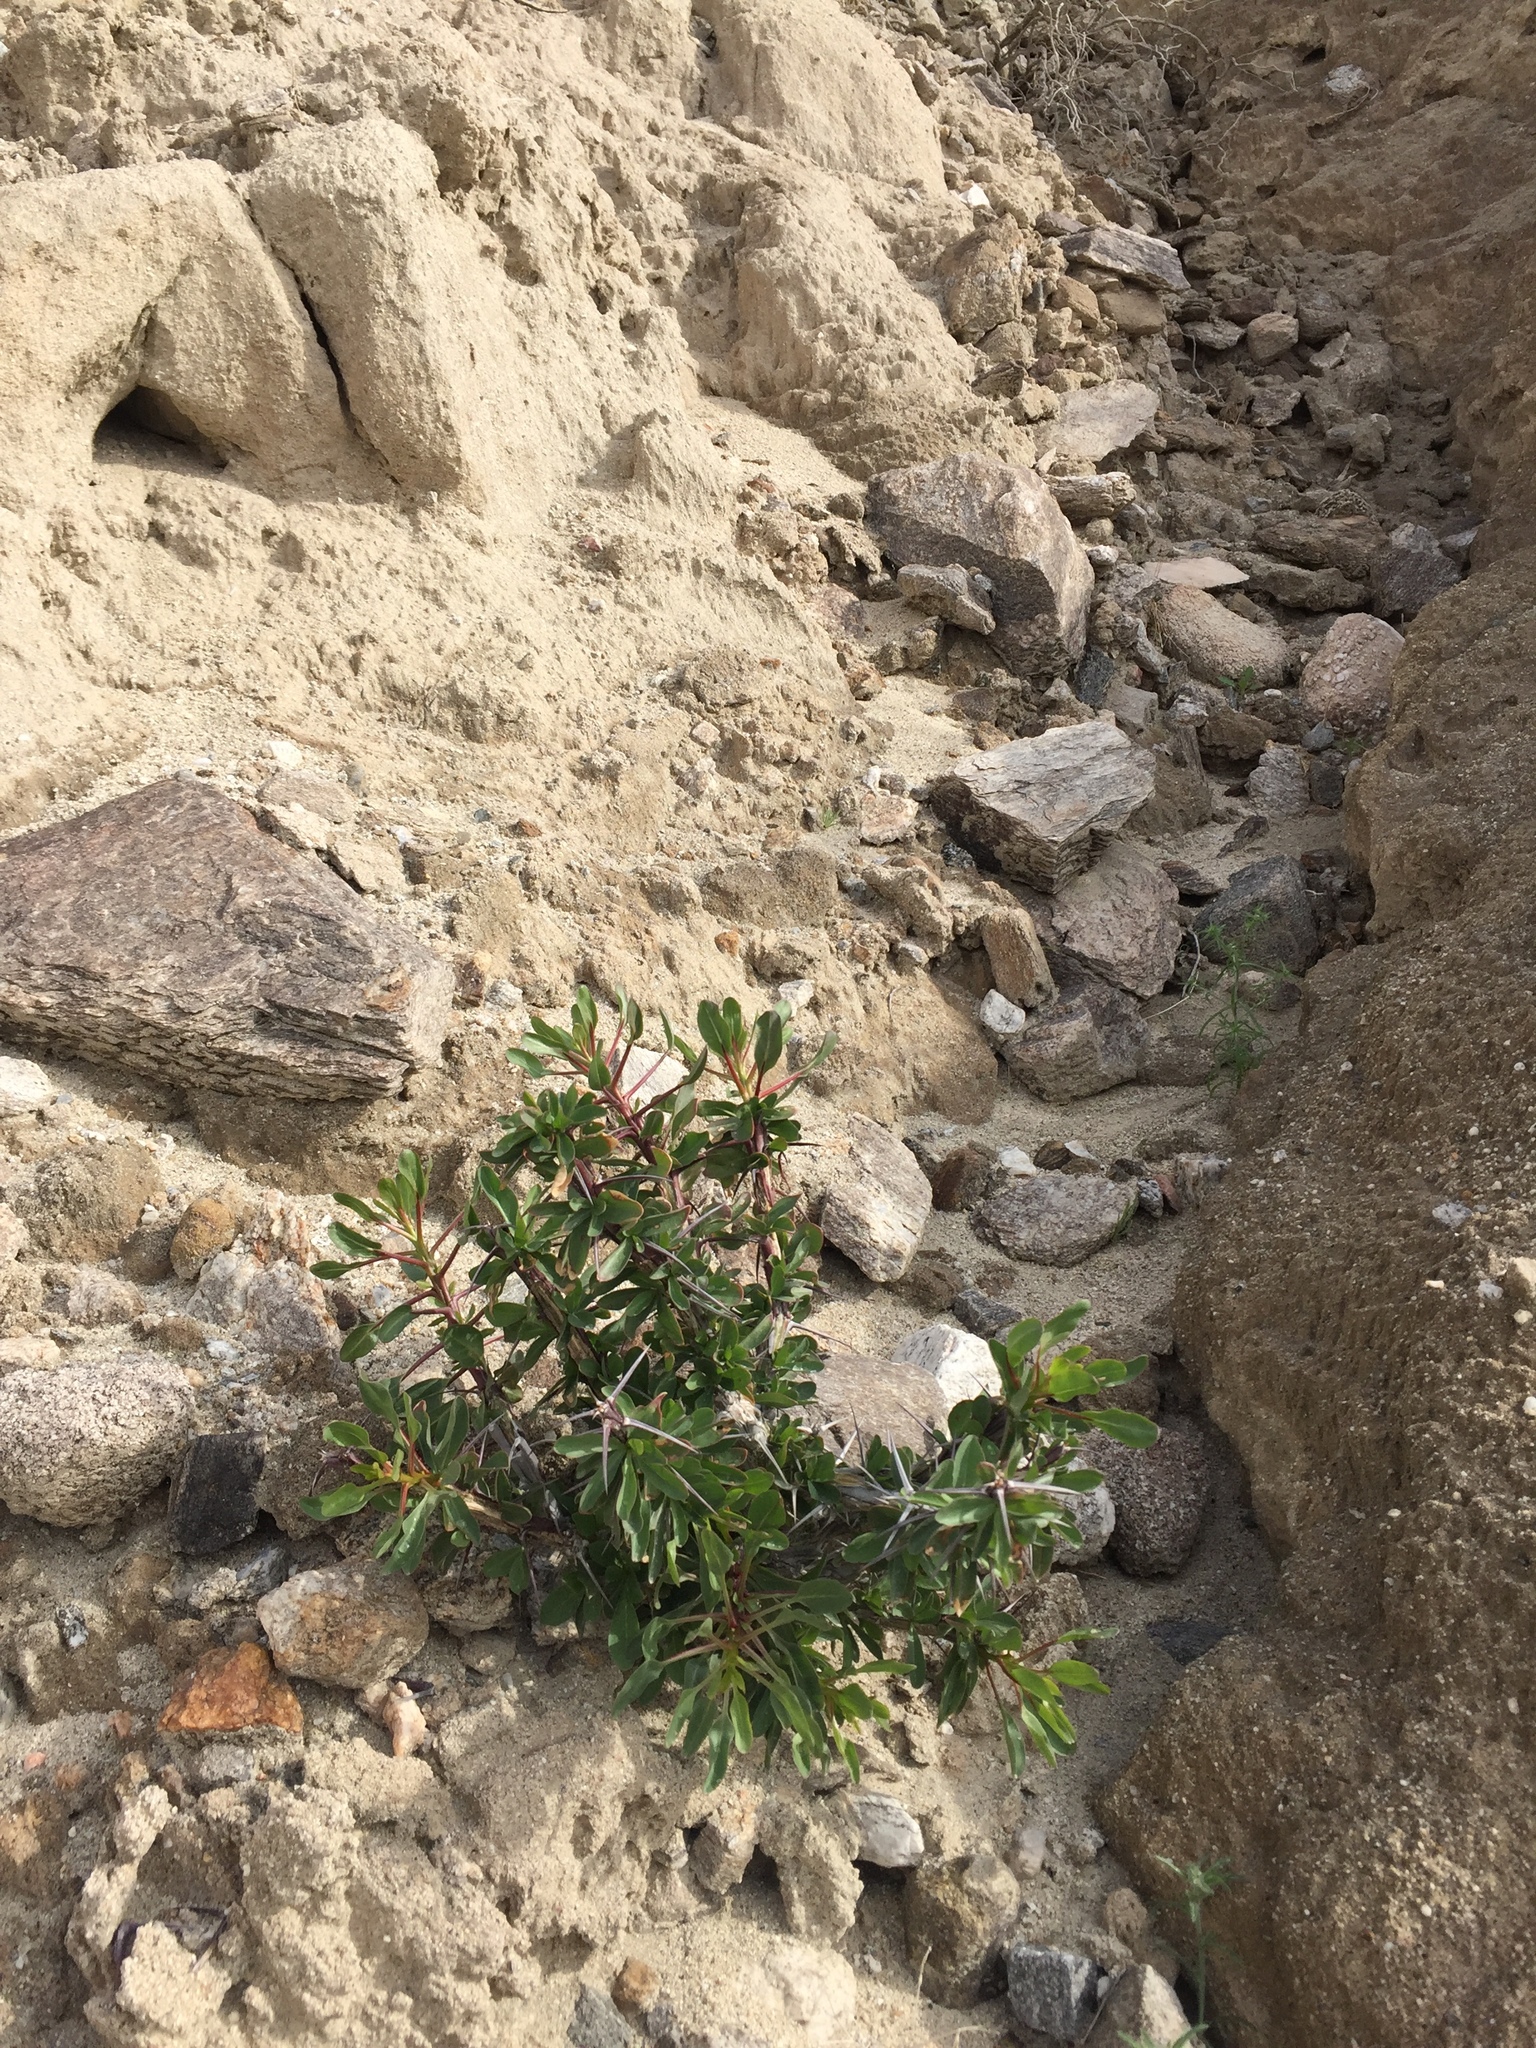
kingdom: Plantae
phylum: Tracheophyta
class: Magnoliopsida
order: Ericales
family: Fouquieriaceae
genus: Fouquieria
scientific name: Fouquieria splendens
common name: Vine-cactus
